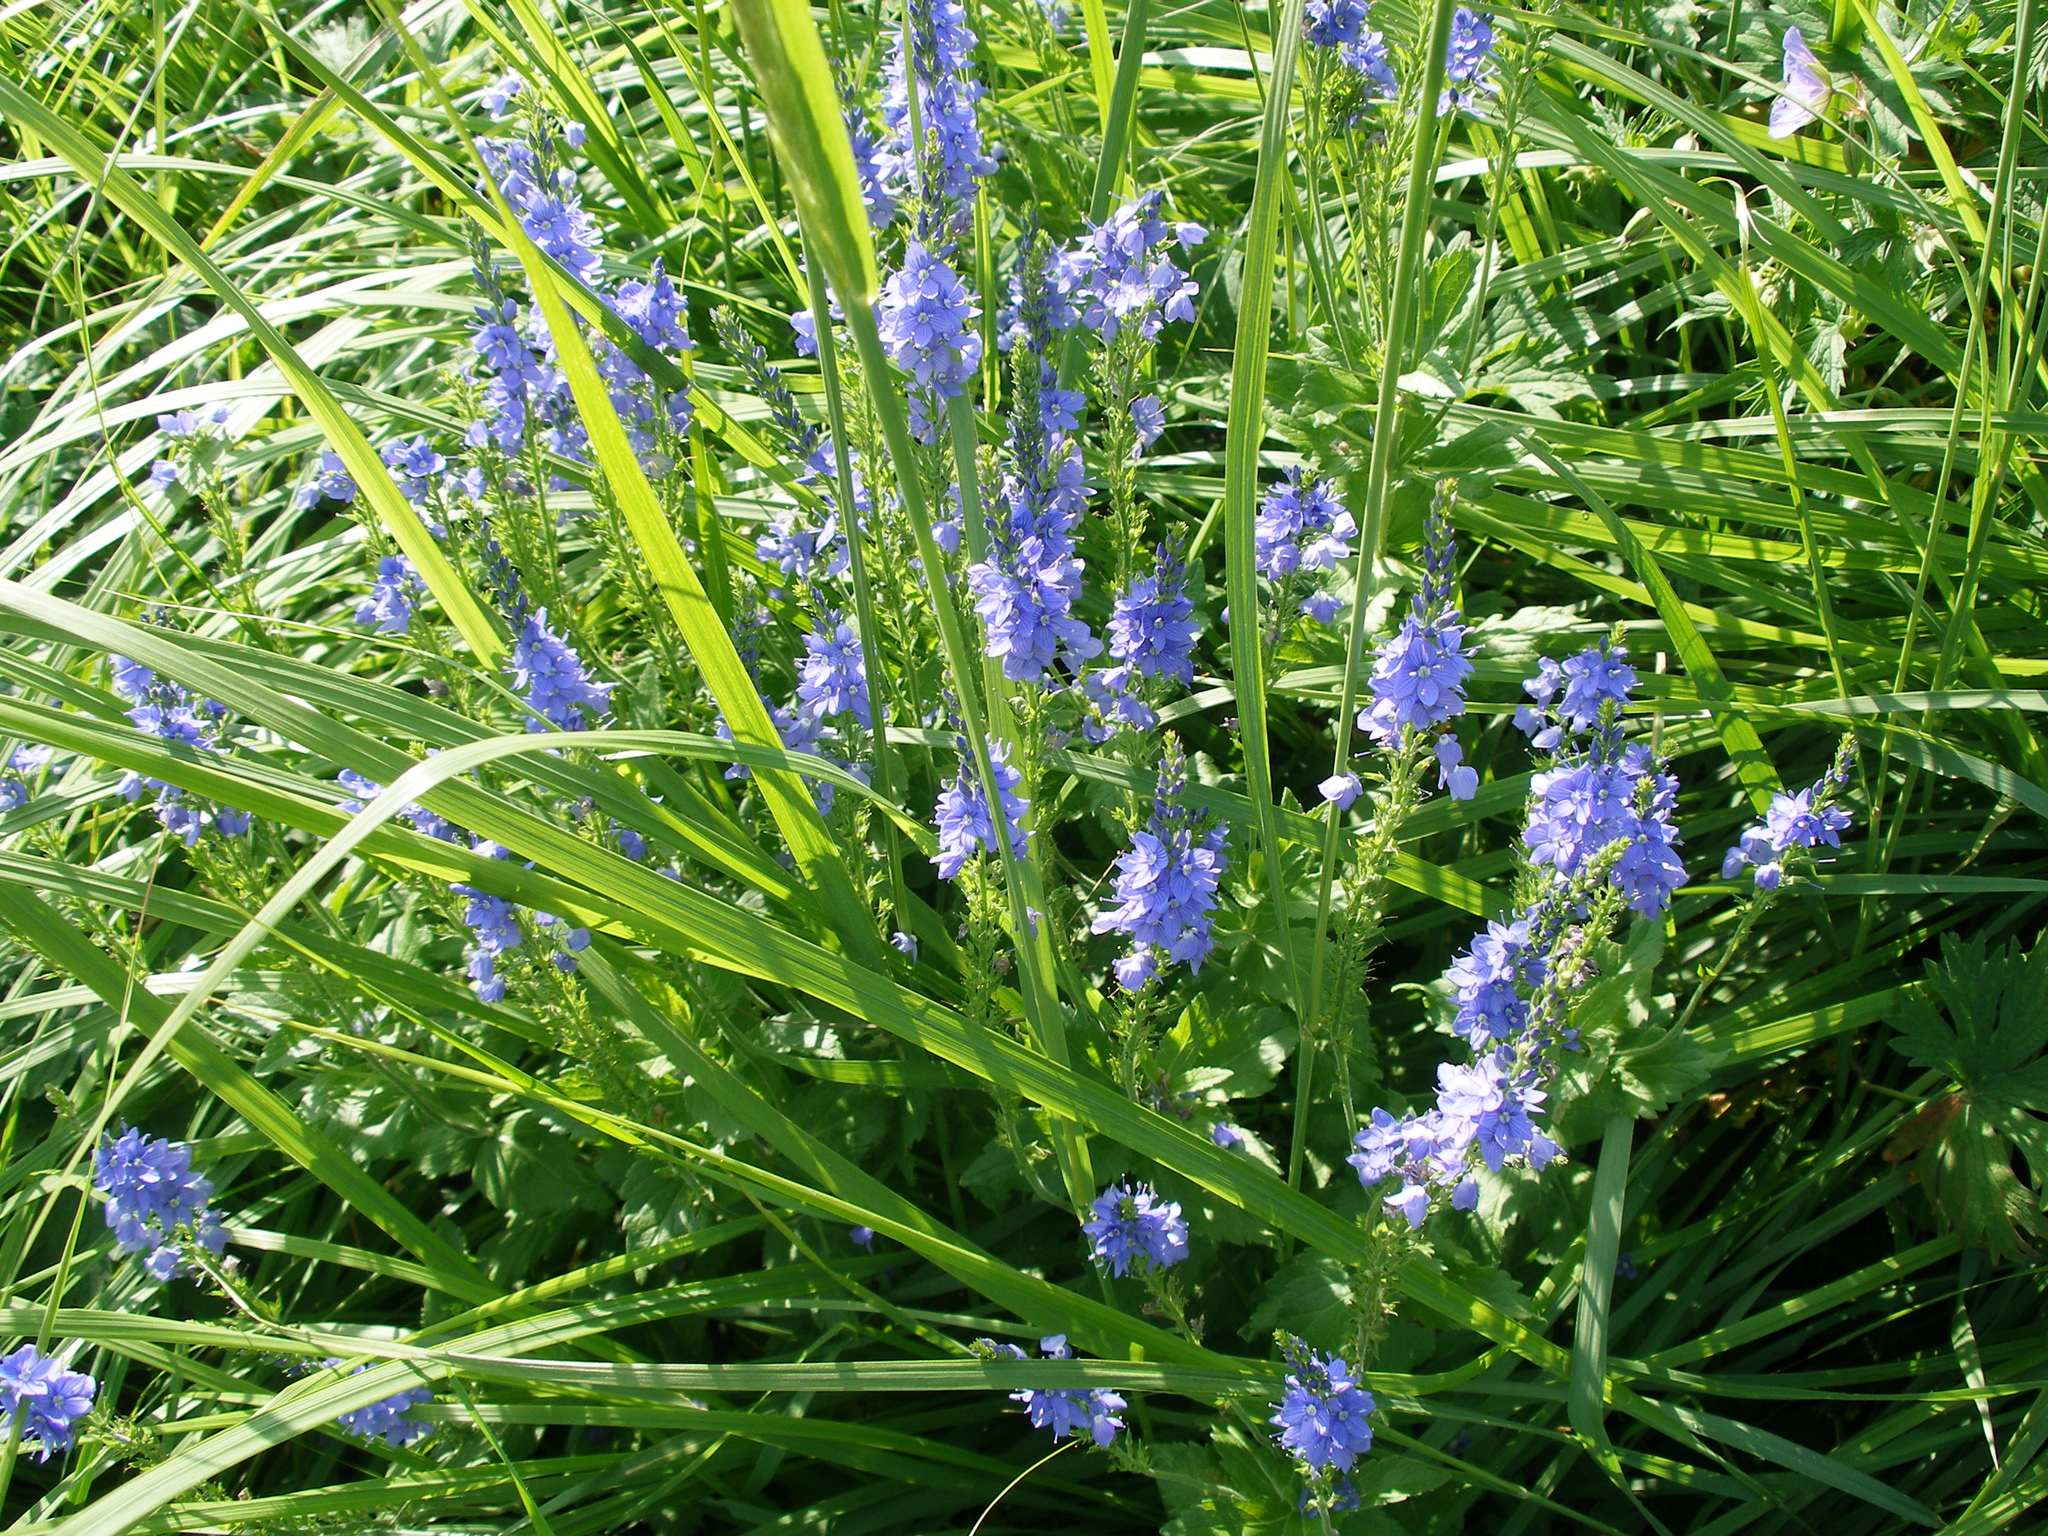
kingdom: Plantae
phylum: Tracheophyta
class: Magnoliopsida
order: Lamiales
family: Plantaginaceae
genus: Veronica
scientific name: Veronica teucrium
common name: Large speedwell
